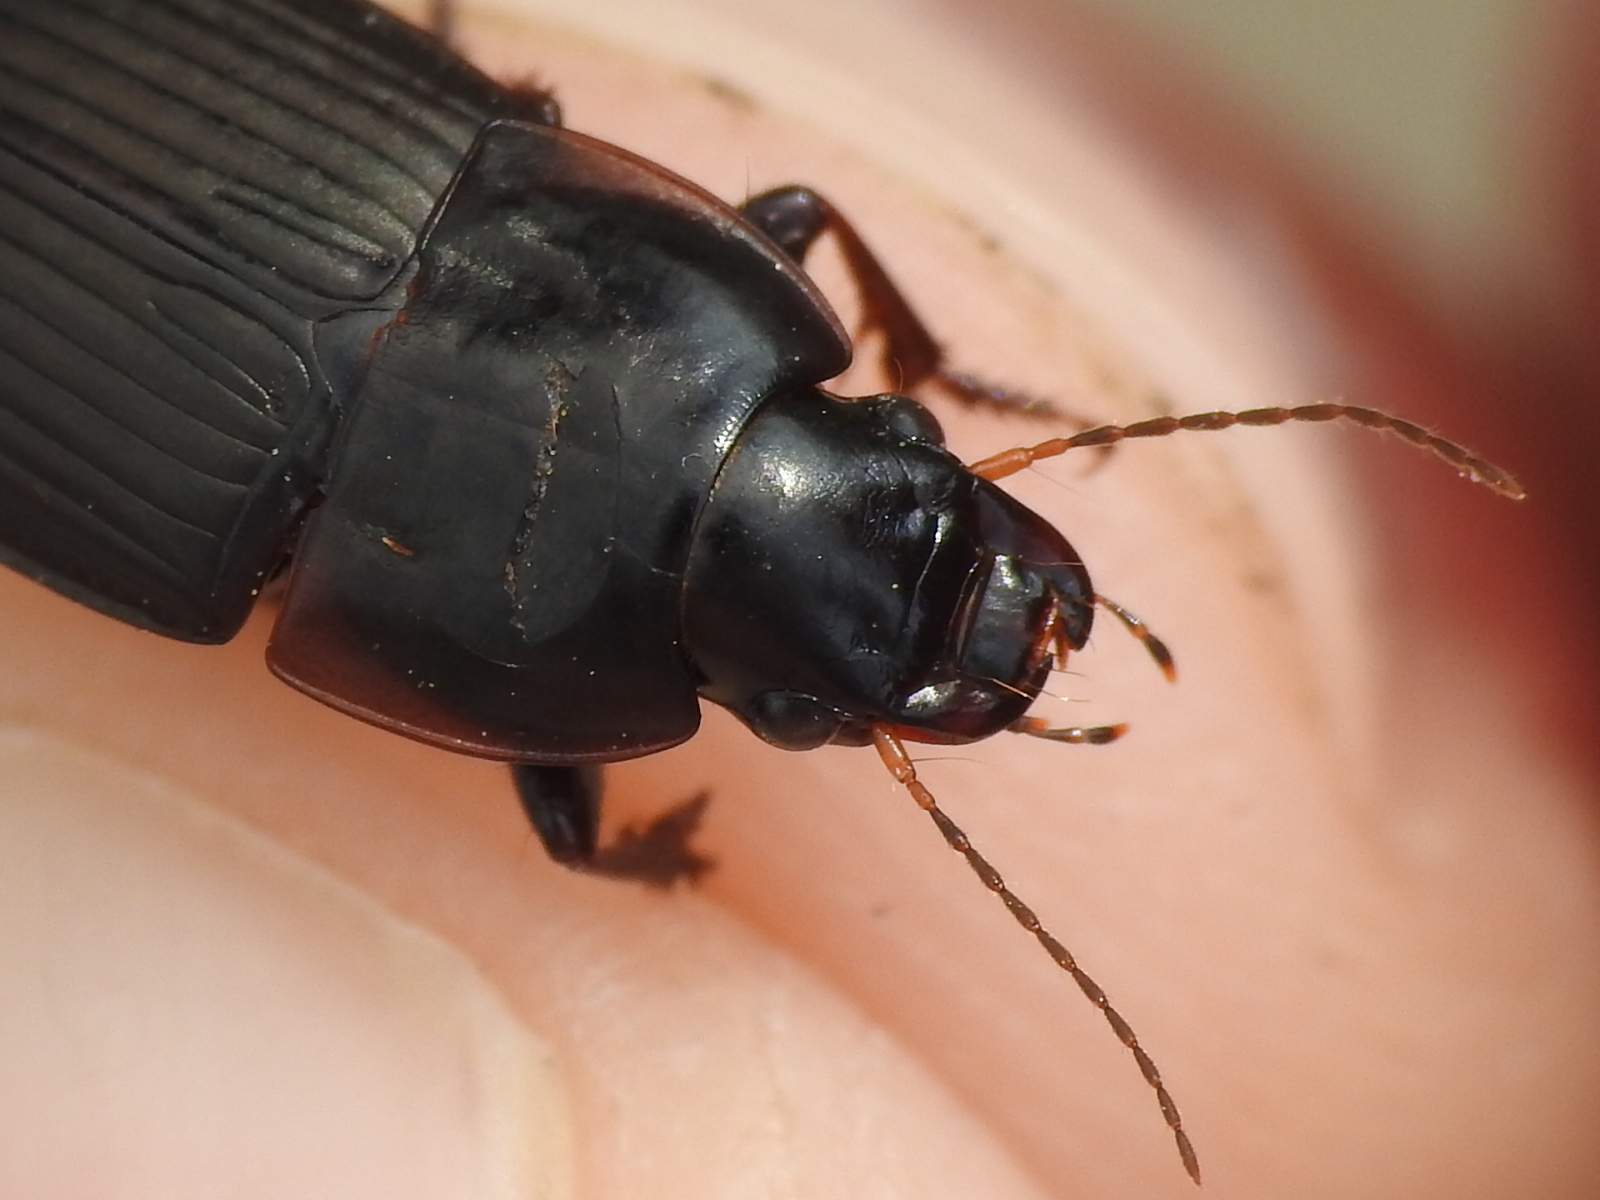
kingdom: Animalia
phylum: Arthropoda
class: Insecta
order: Coleoptera
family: Carabidae
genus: Anisodactylus
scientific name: Anisodactylus rusticus
